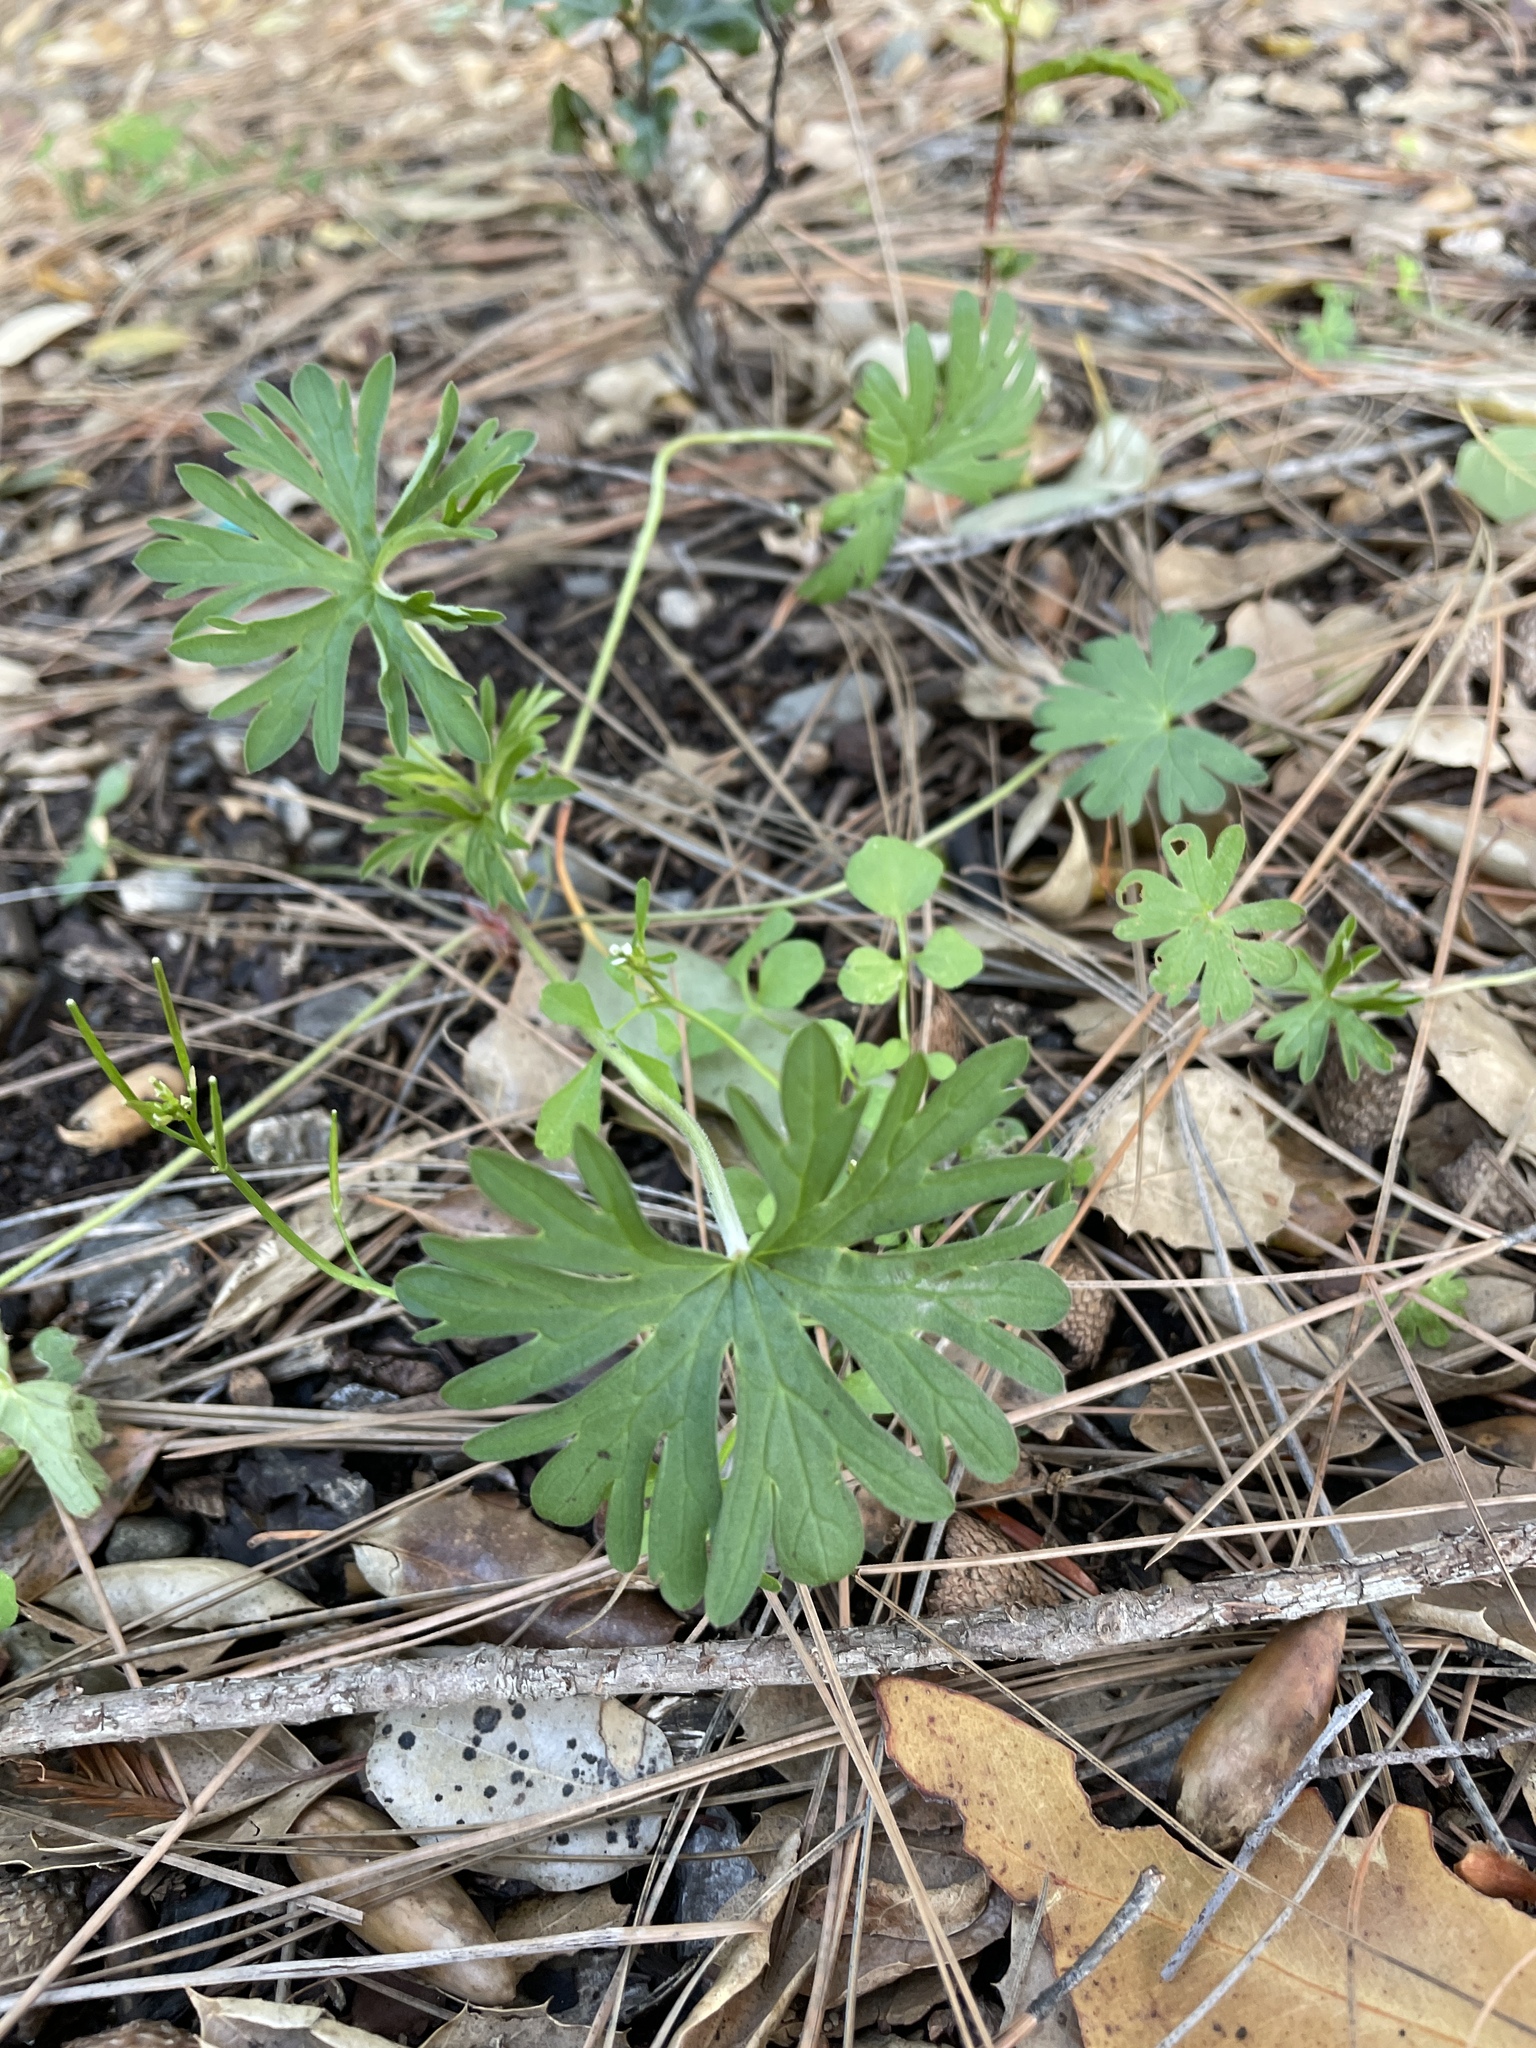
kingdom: Plantae
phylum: Tracheophyta
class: Magnoliopsida
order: Geraniales
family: Geraniaceae
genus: Geranium
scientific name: Geranium
